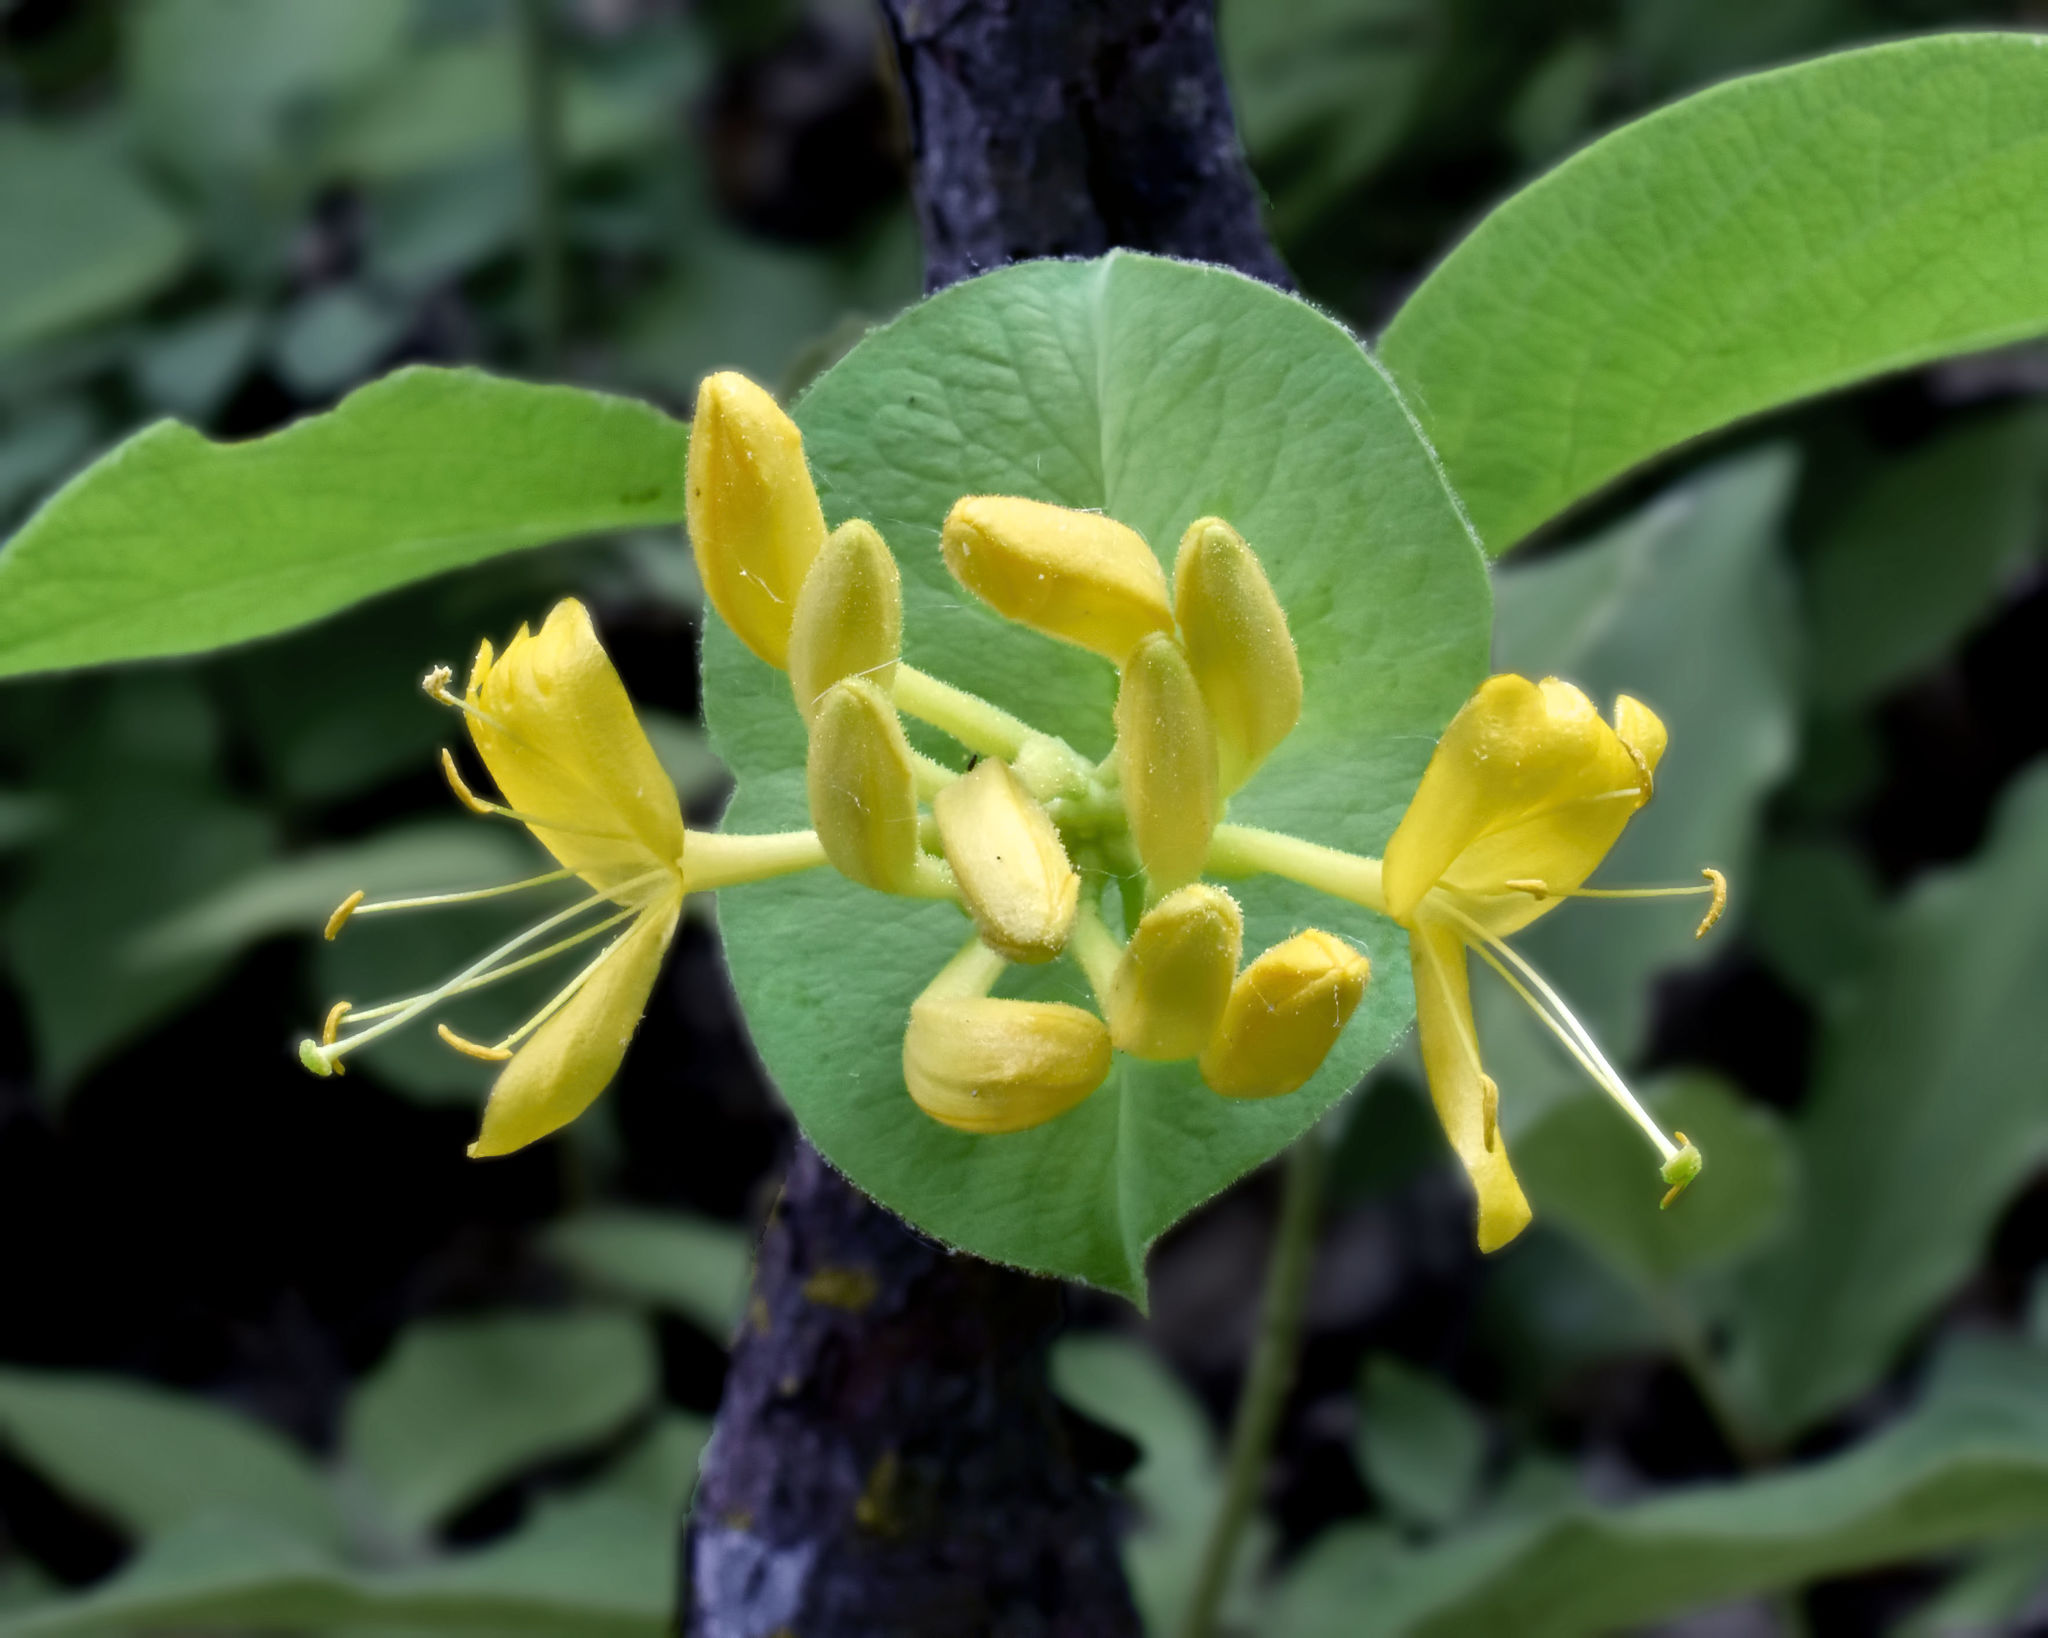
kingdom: Plantae
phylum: Tracheophyta
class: Magnoliopsida
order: Dipsacales
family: Caprifoliaceae
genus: Lonicera
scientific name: Lonicera hirsuta
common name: Hairy honeysuckle
